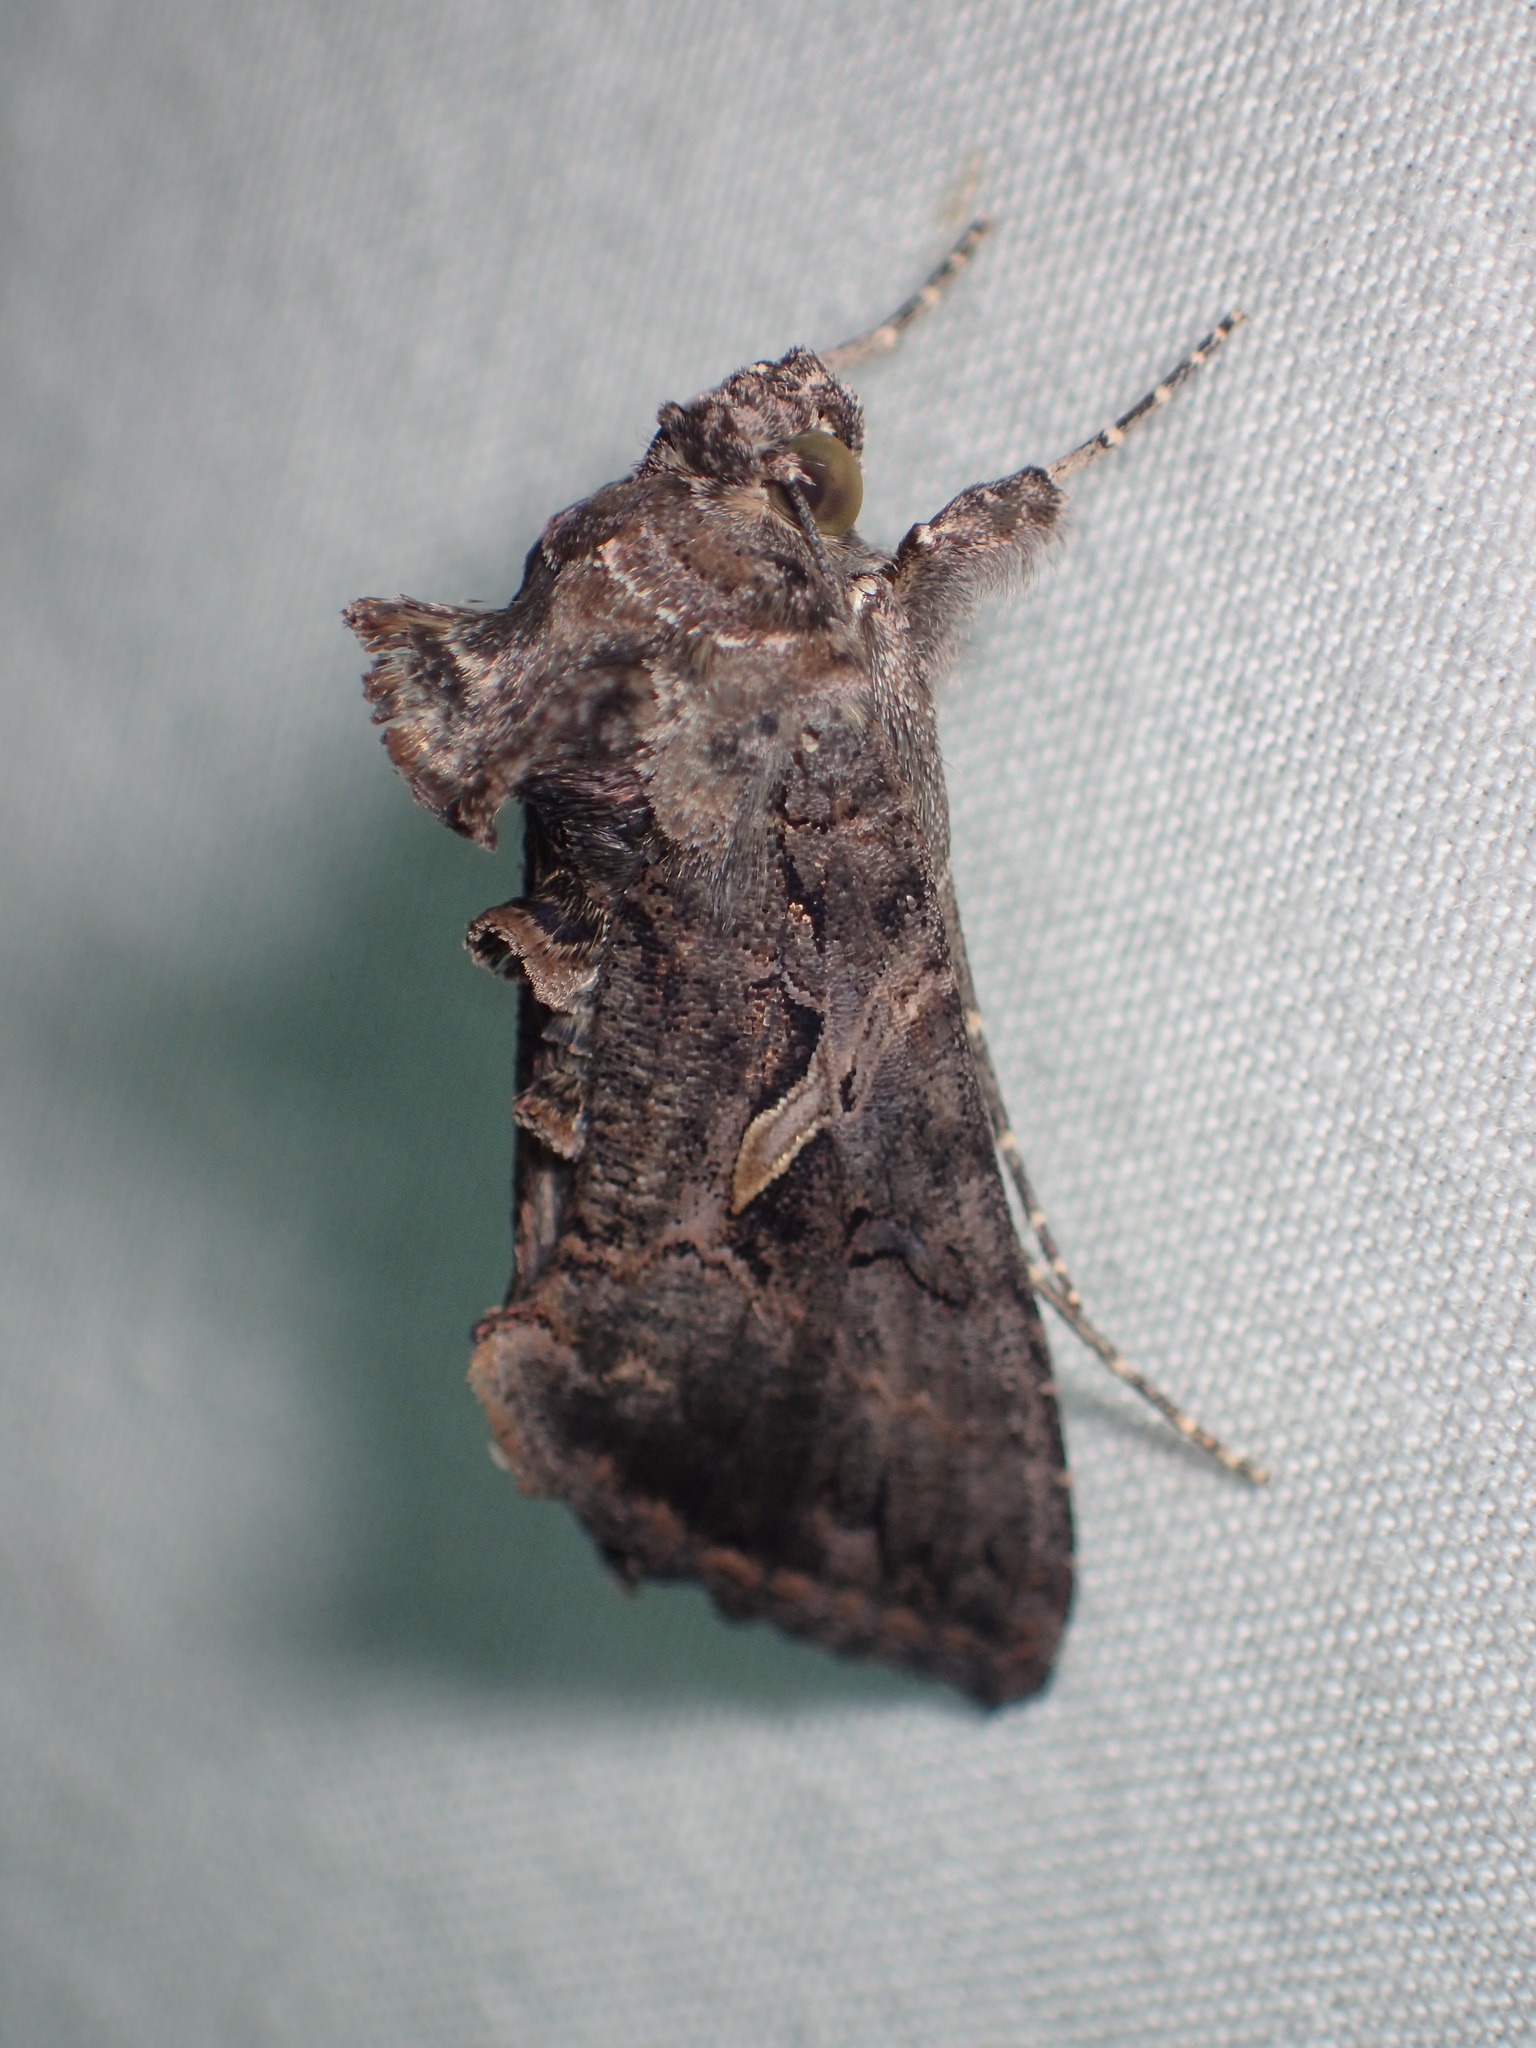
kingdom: Animalia
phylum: Arthropoda
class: Insecta
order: Lepidoptera
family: Noctuidae
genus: Chrysodeixis
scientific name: Chrysodeixis includens
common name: Cutworm moth
